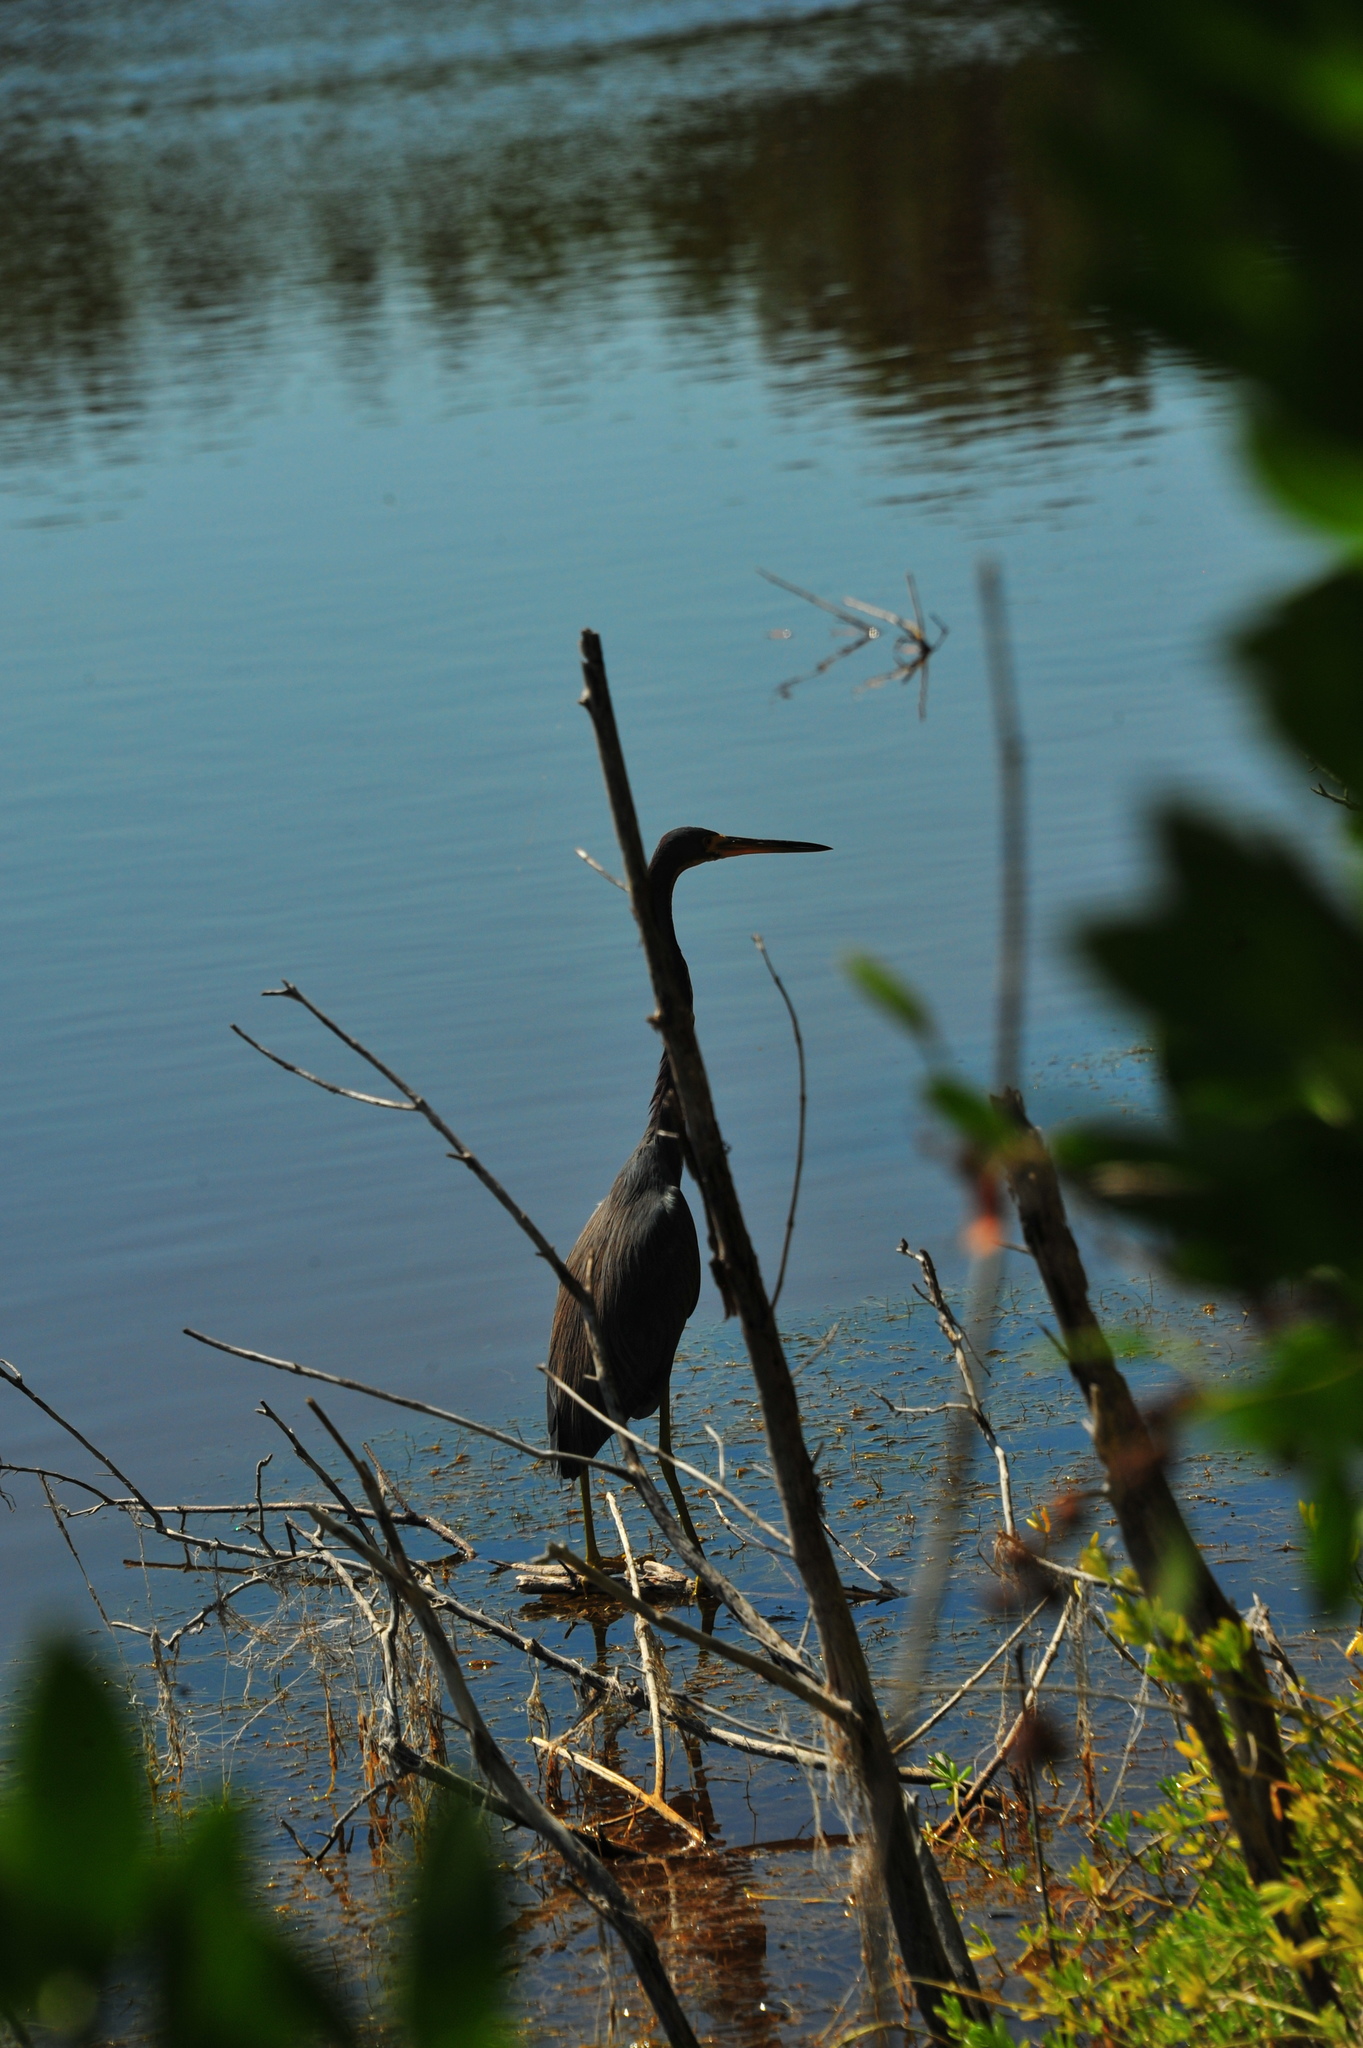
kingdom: Animalia
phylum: Chordata
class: Aves
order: Pelecaniformes
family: Ardeidae
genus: Egretta
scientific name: Egretta tricolor
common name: Tricolored heron
